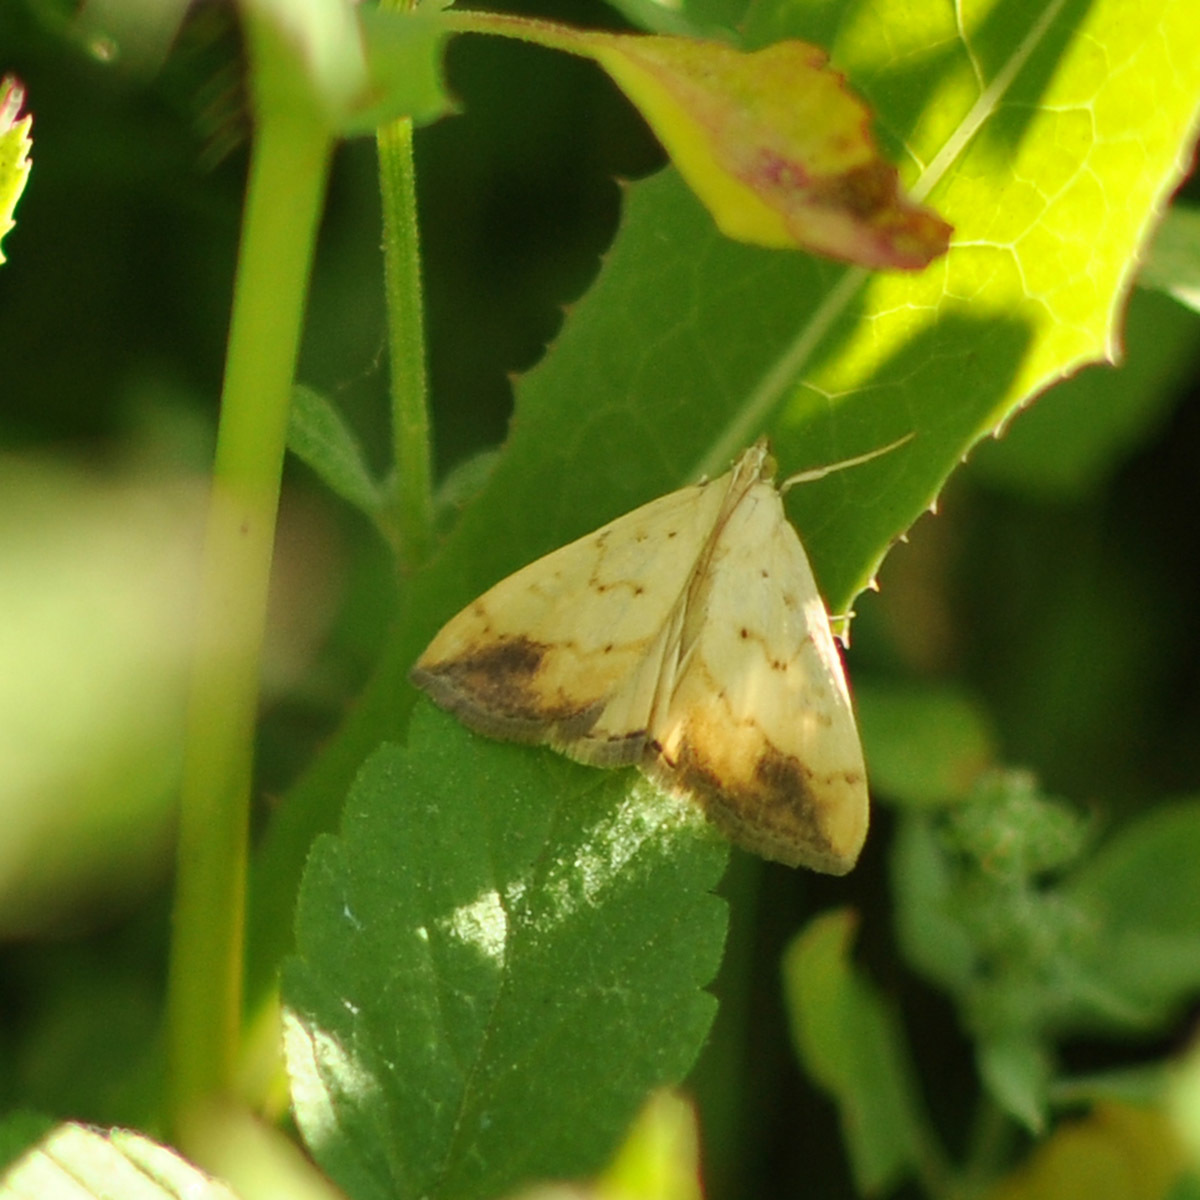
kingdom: Animalia
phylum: Arthropoda
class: Insecta
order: Lepidoptera
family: Crambidae
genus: Evergestis
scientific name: Evergestis extimalis
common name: Marbled yellow pearl
